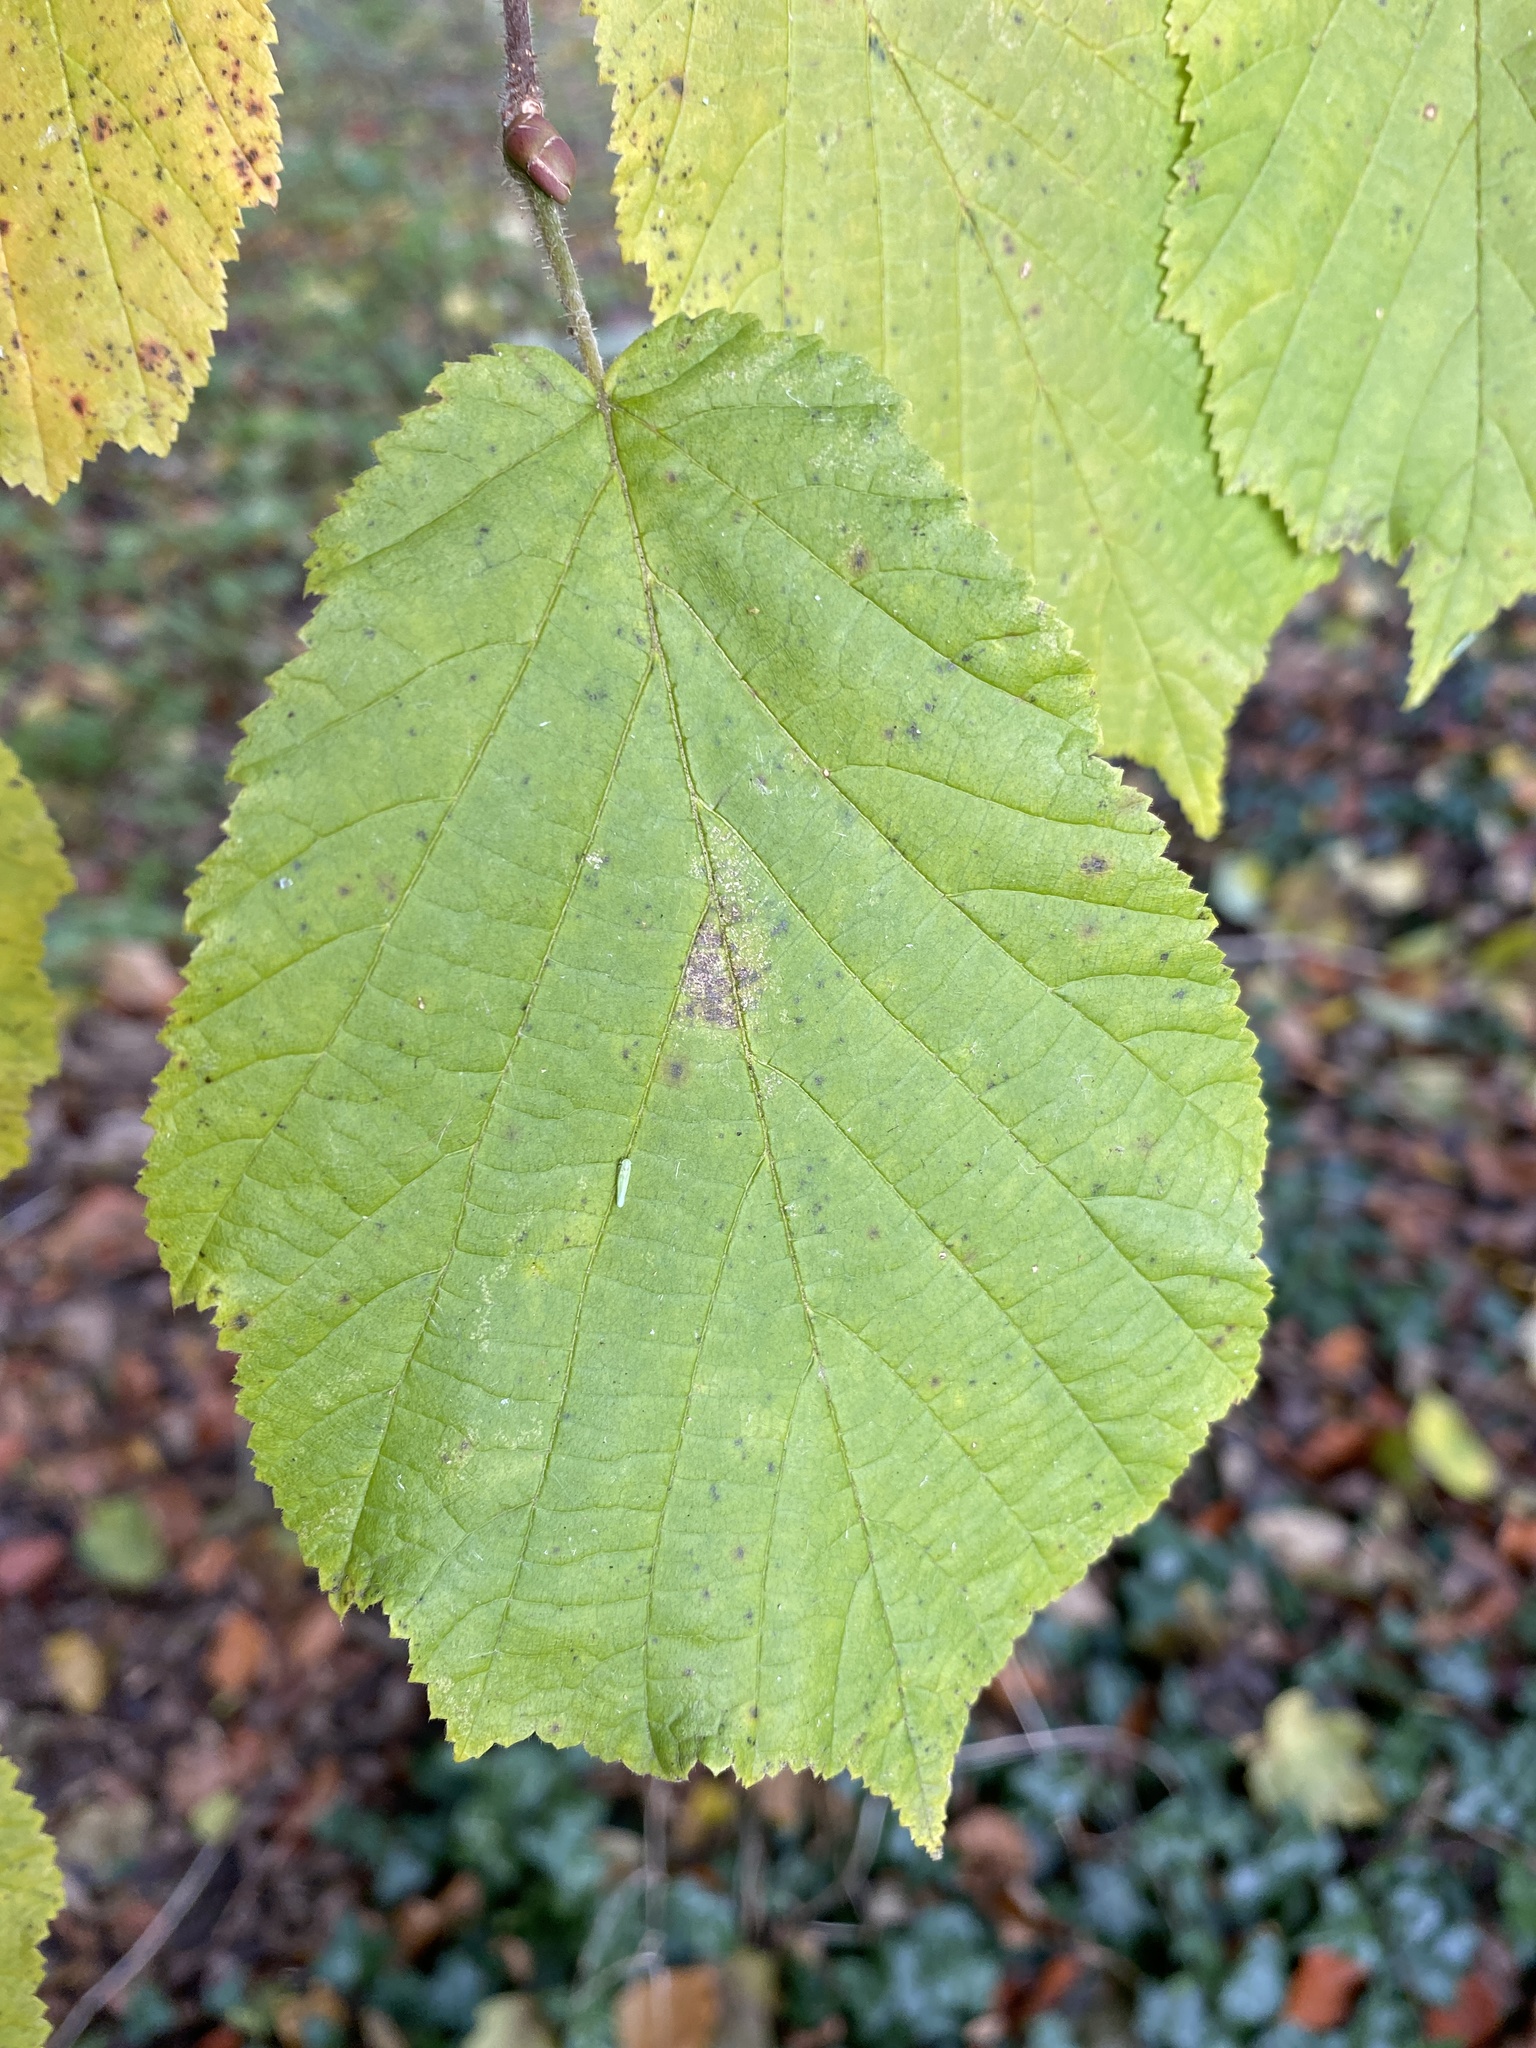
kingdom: Plantae
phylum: Tracheophyta
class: Magnoliopsida
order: Fagales
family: Betulaceae
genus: Corylus
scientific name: Corylus avellana
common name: European hazel
